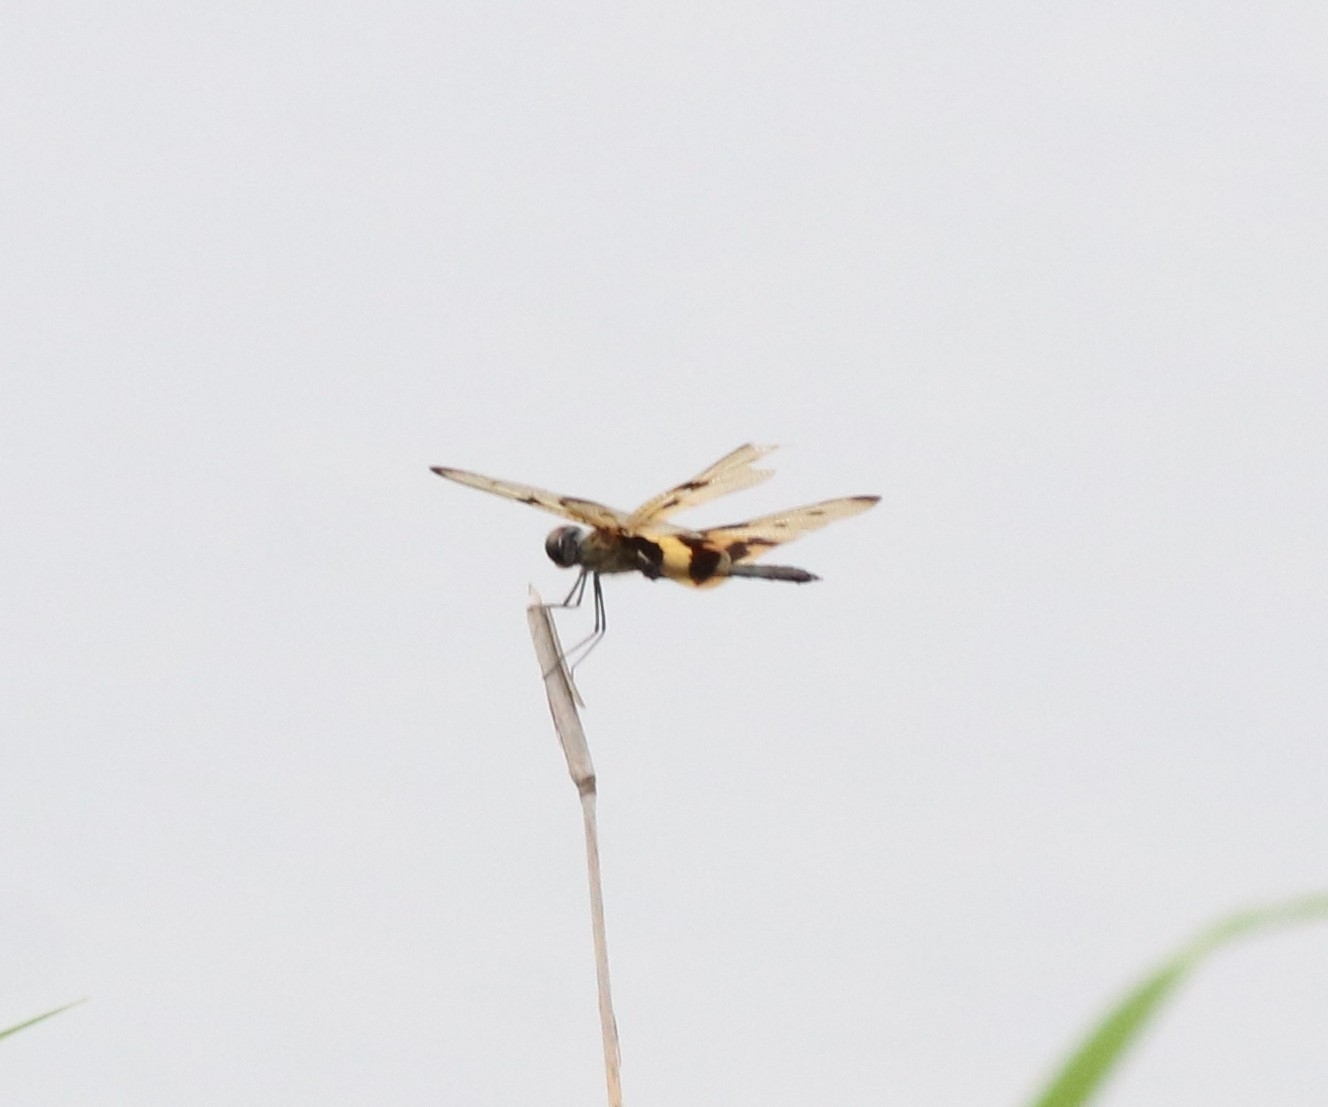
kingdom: Animalia
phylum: Arthropoda
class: Insecta
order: Odonata
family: Libellulidae
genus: Rhyothemis
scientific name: Rhyothemis variegata
